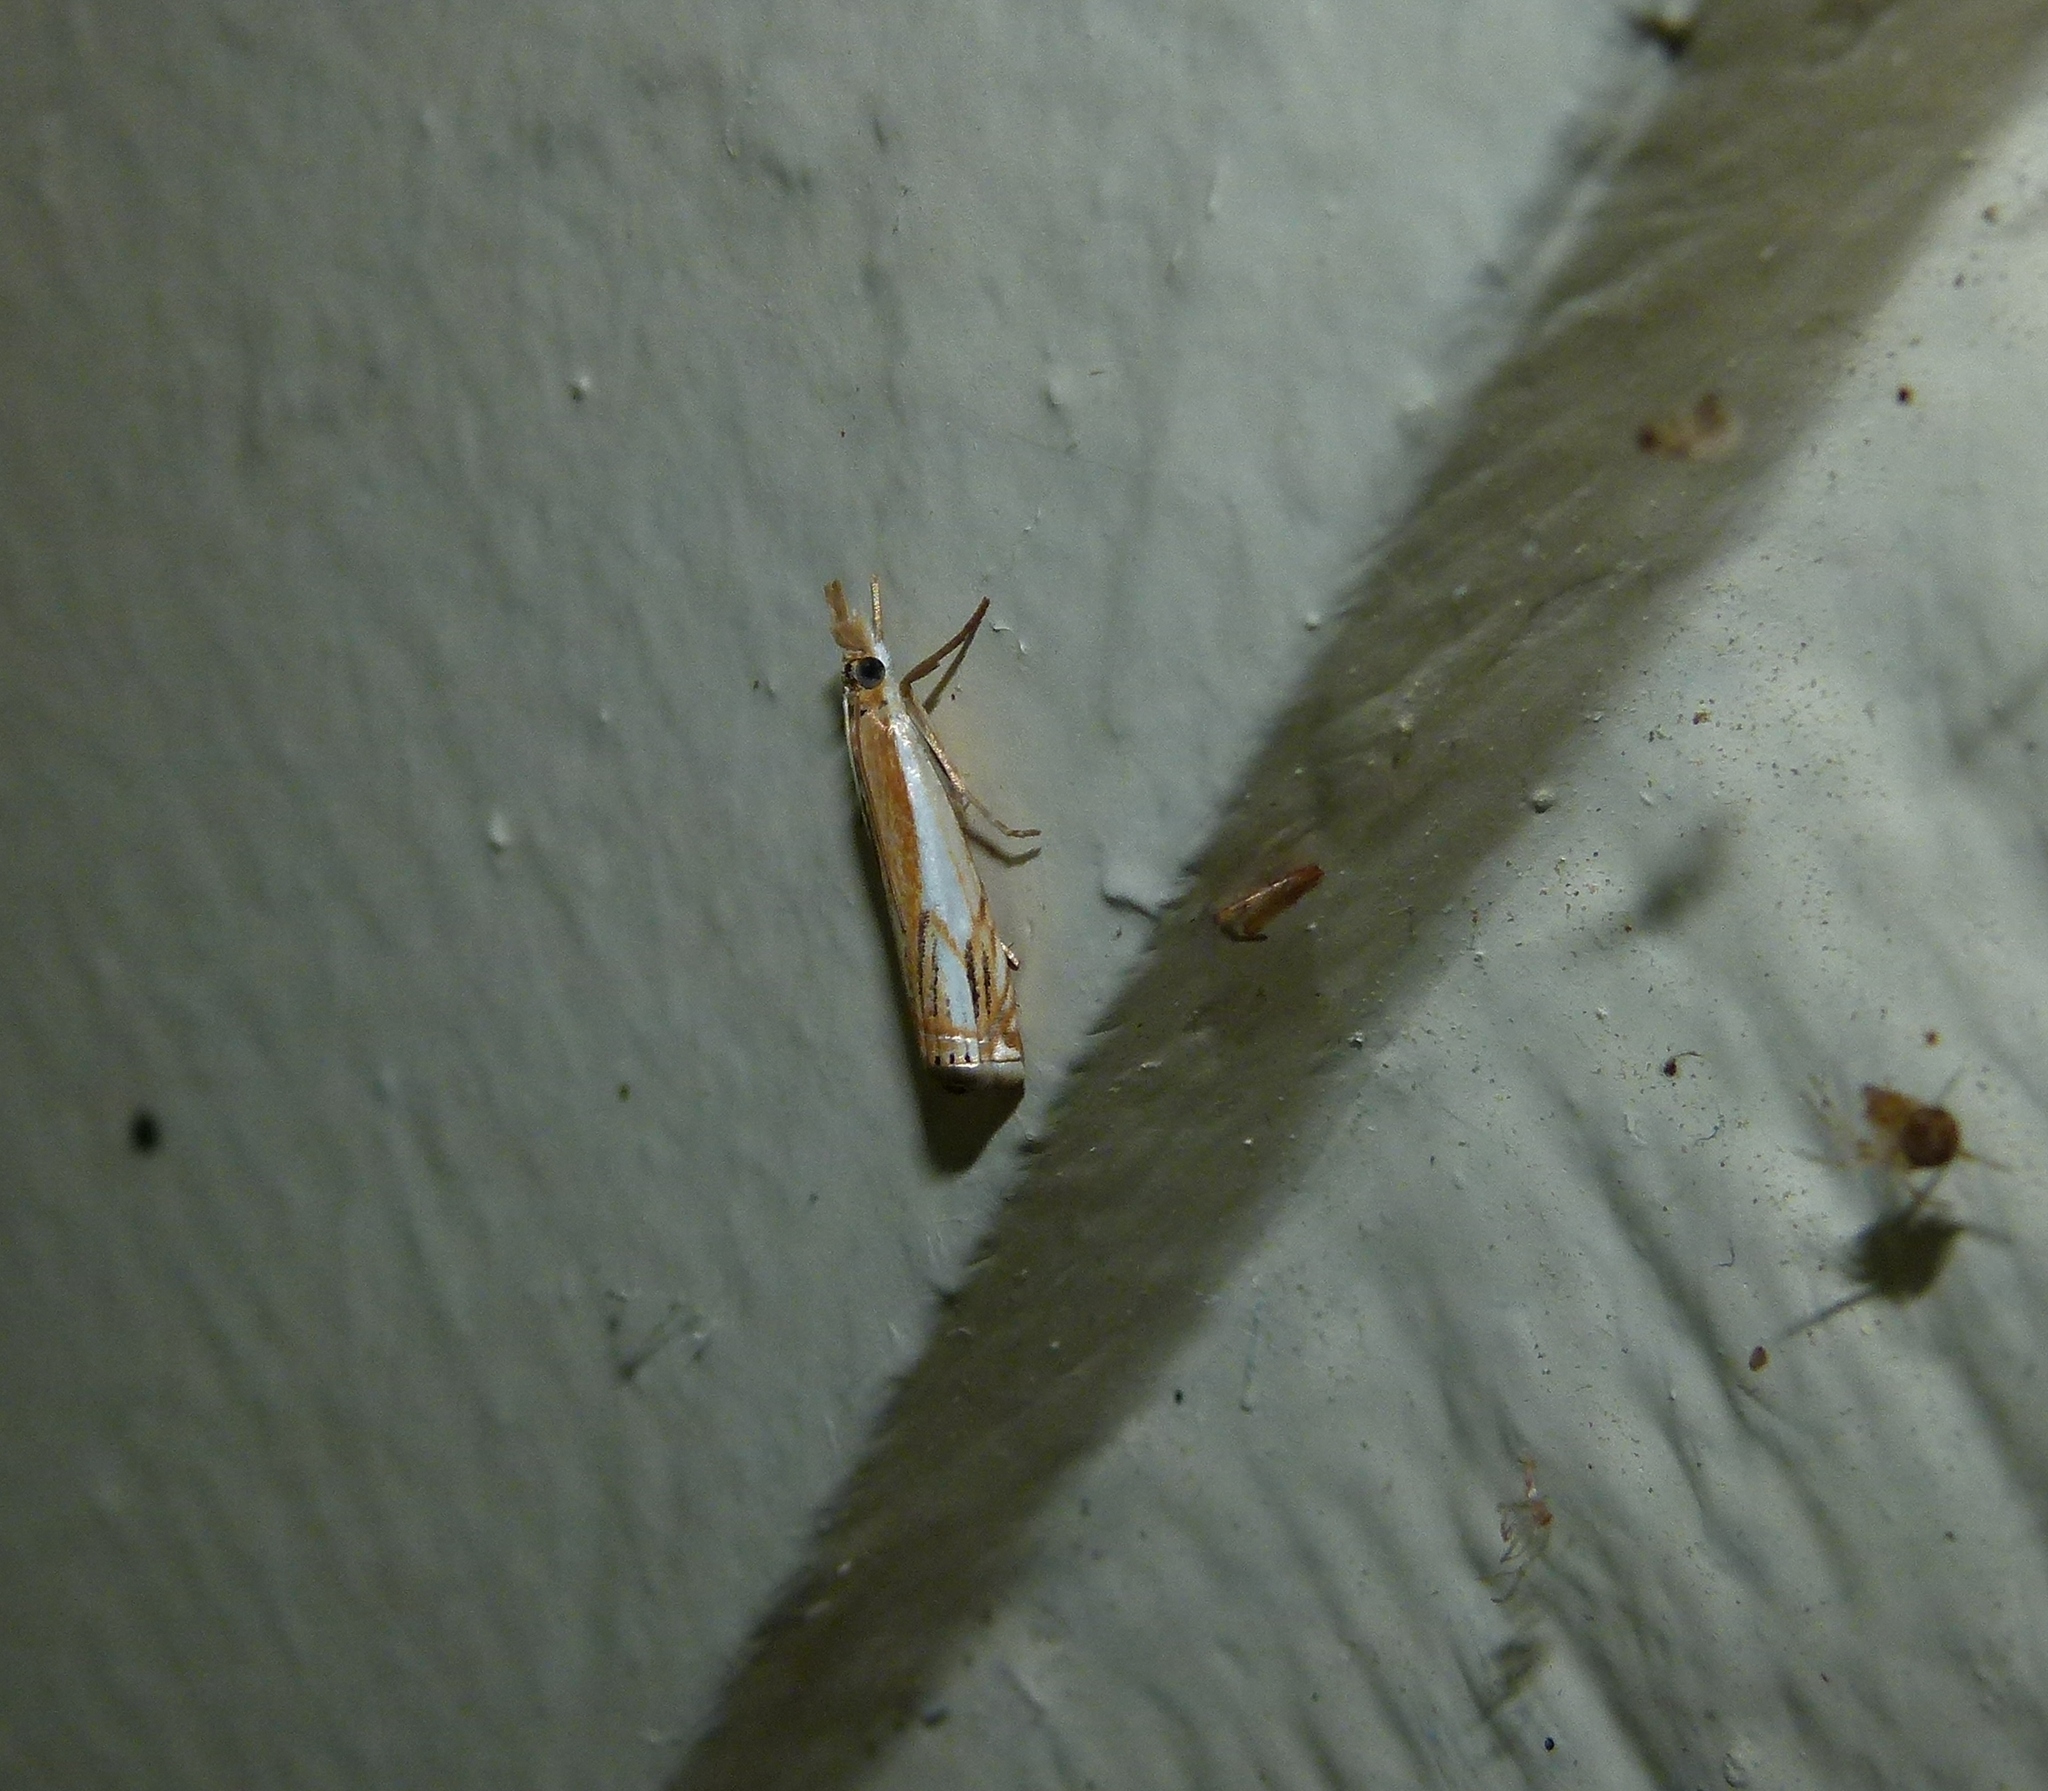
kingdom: Animalia
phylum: Arthropoda
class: Insecta
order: Lepidoptera
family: Crambidae
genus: Crambus
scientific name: Crambus agitatellus
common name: Double-banded grass-veneer
